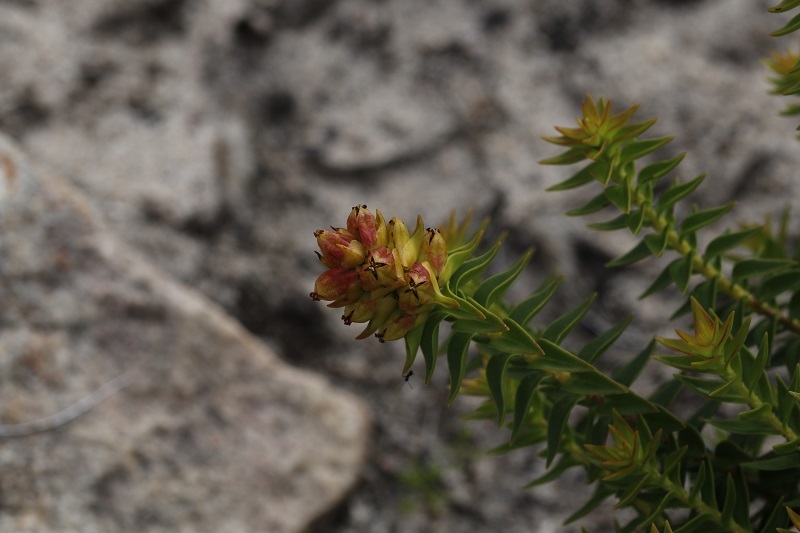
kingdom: Plantae
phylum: Tracheophyta
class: Magnoliopsida
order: Myrtales
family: Penaeaceae
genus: Penaea
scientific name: Penaea mucronata
